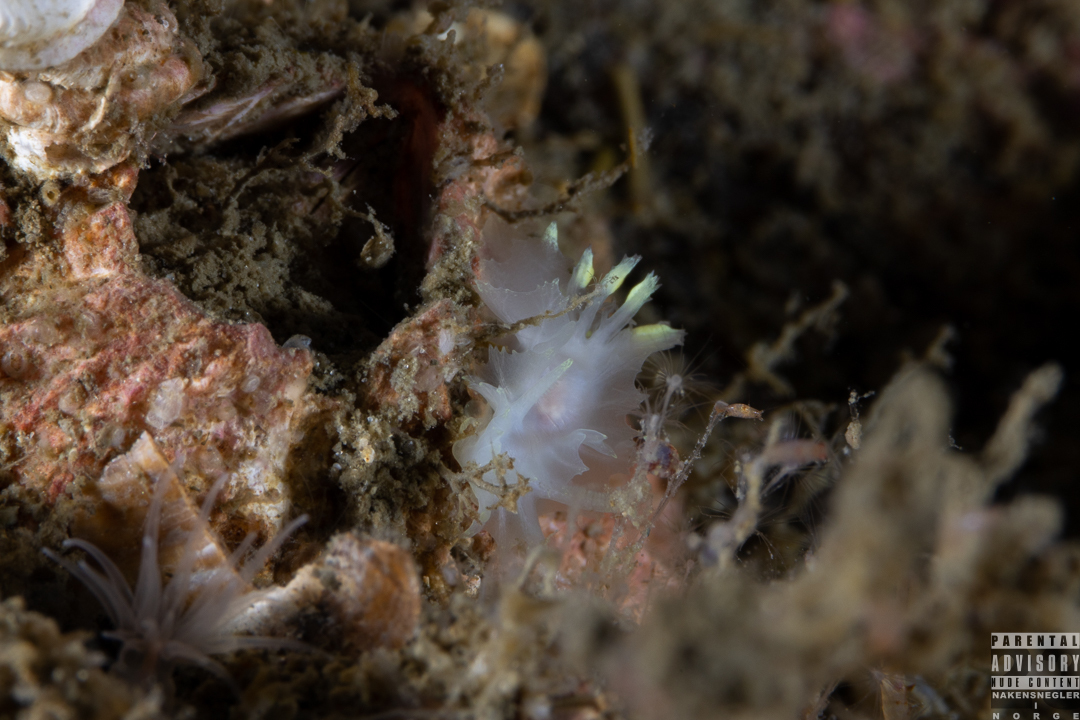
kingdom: Animalia
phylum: Mollusca
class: Gastropoda
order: Nudibranchia
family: Goniodorididae
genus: Lophodoris
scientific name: Lophodoris danielsseni
